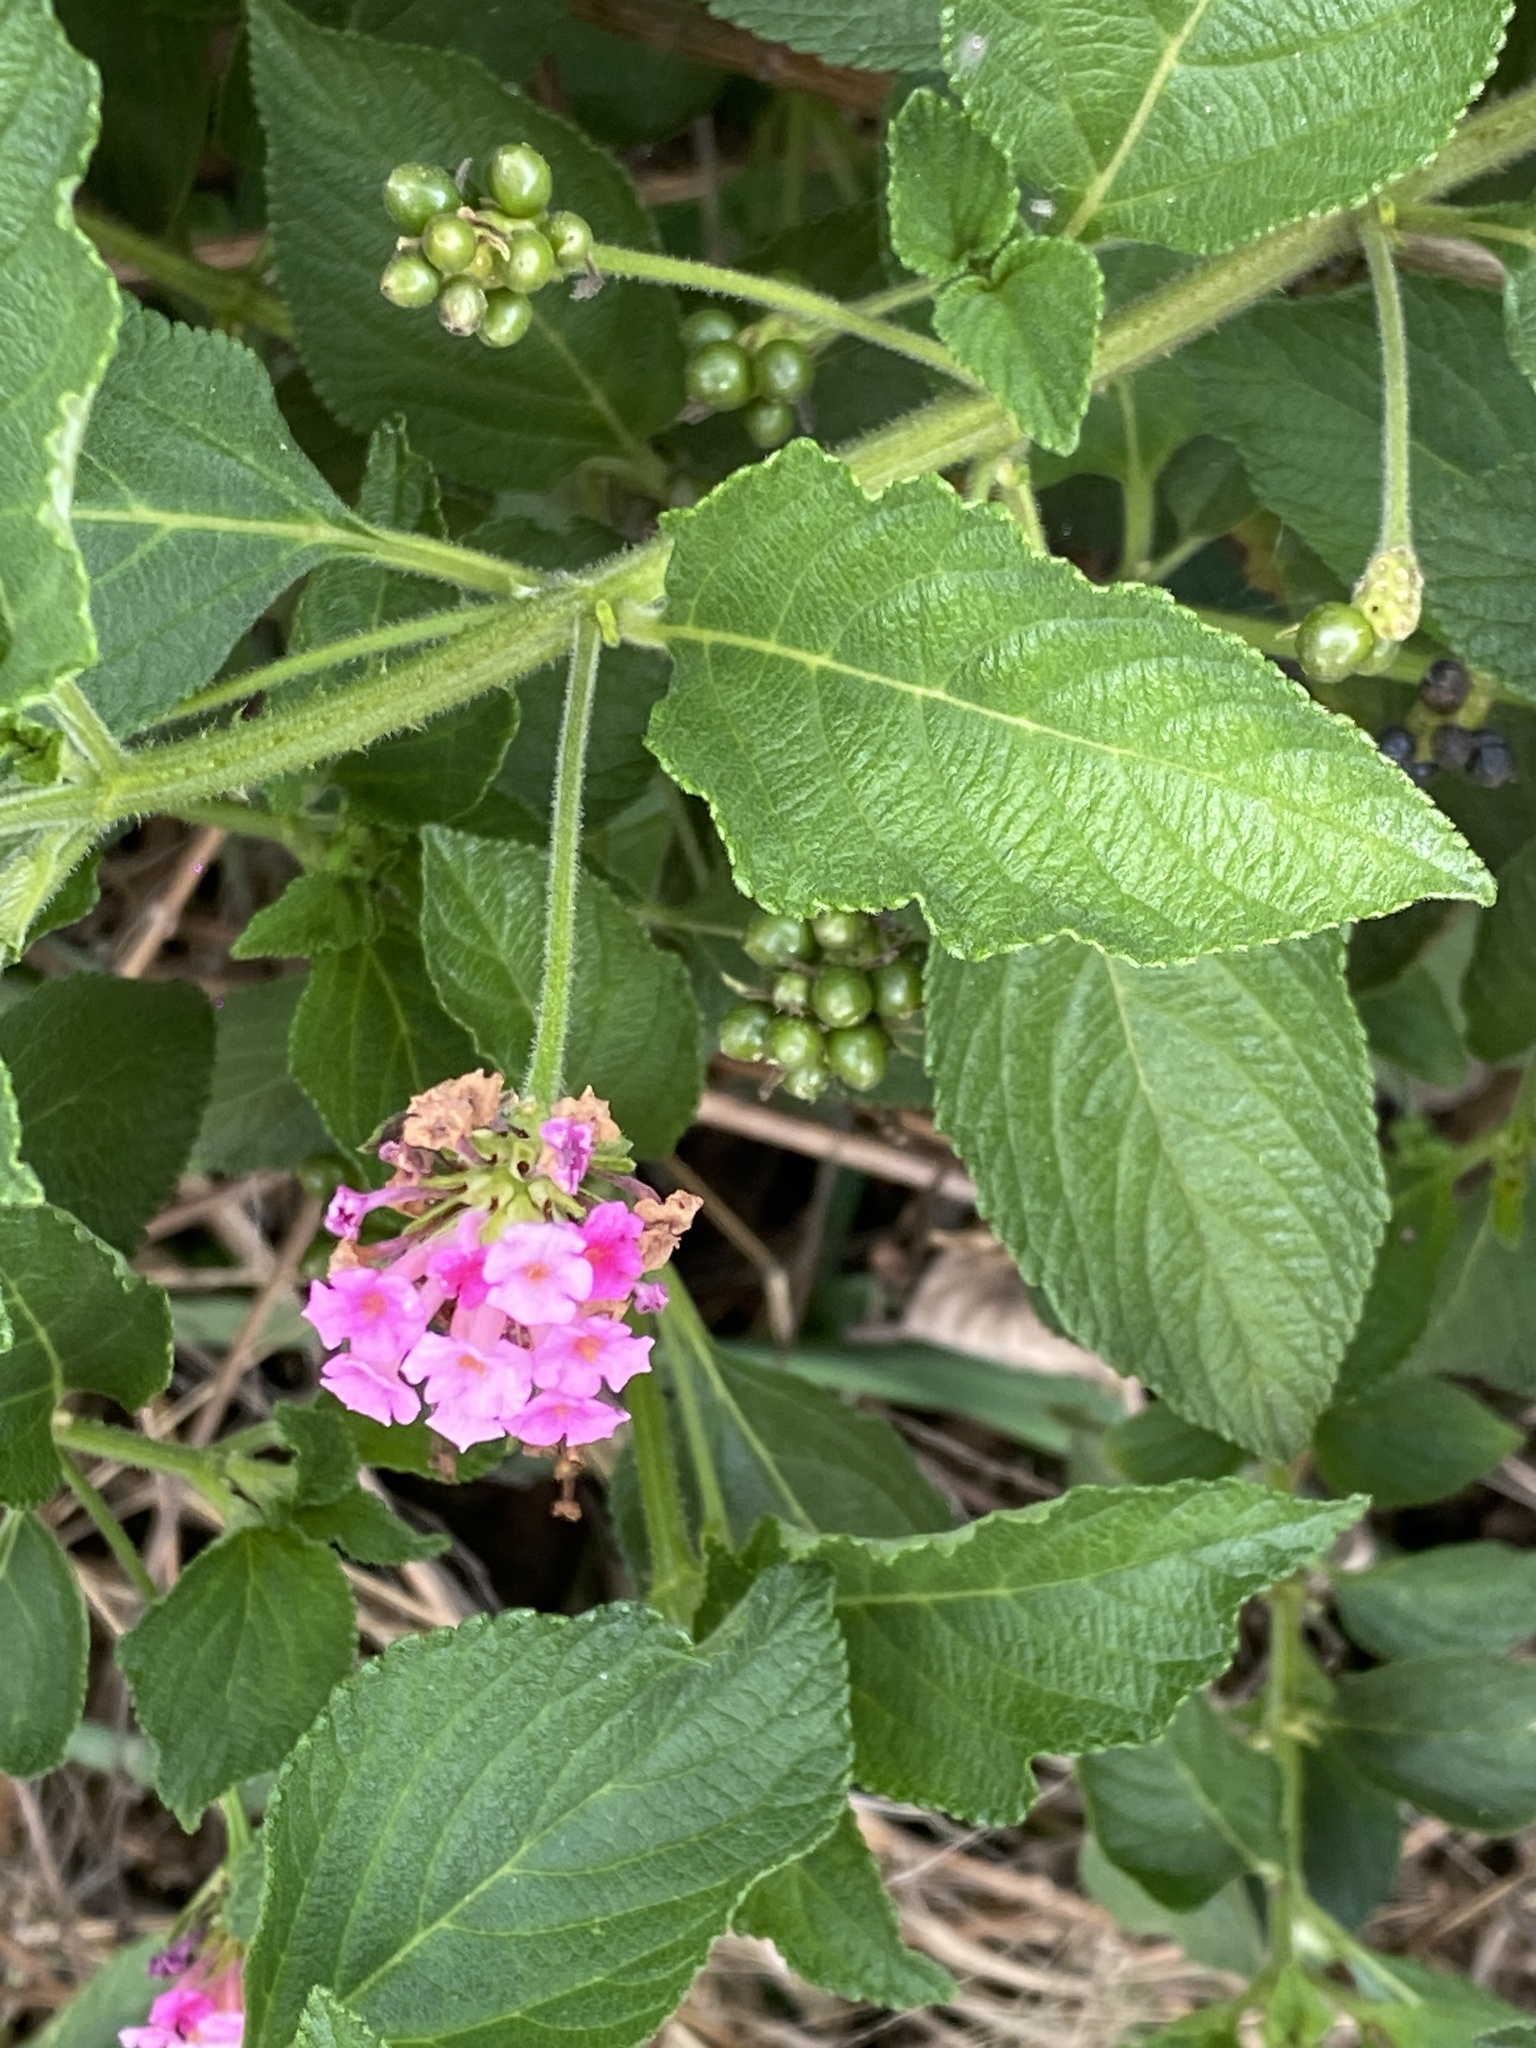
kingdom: Plantae
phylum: Tracheophyta
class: Magnoliopsida
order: Lamiales
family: Verbenaceae
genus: Lantana
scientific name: Lantana camara
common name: Lantana
